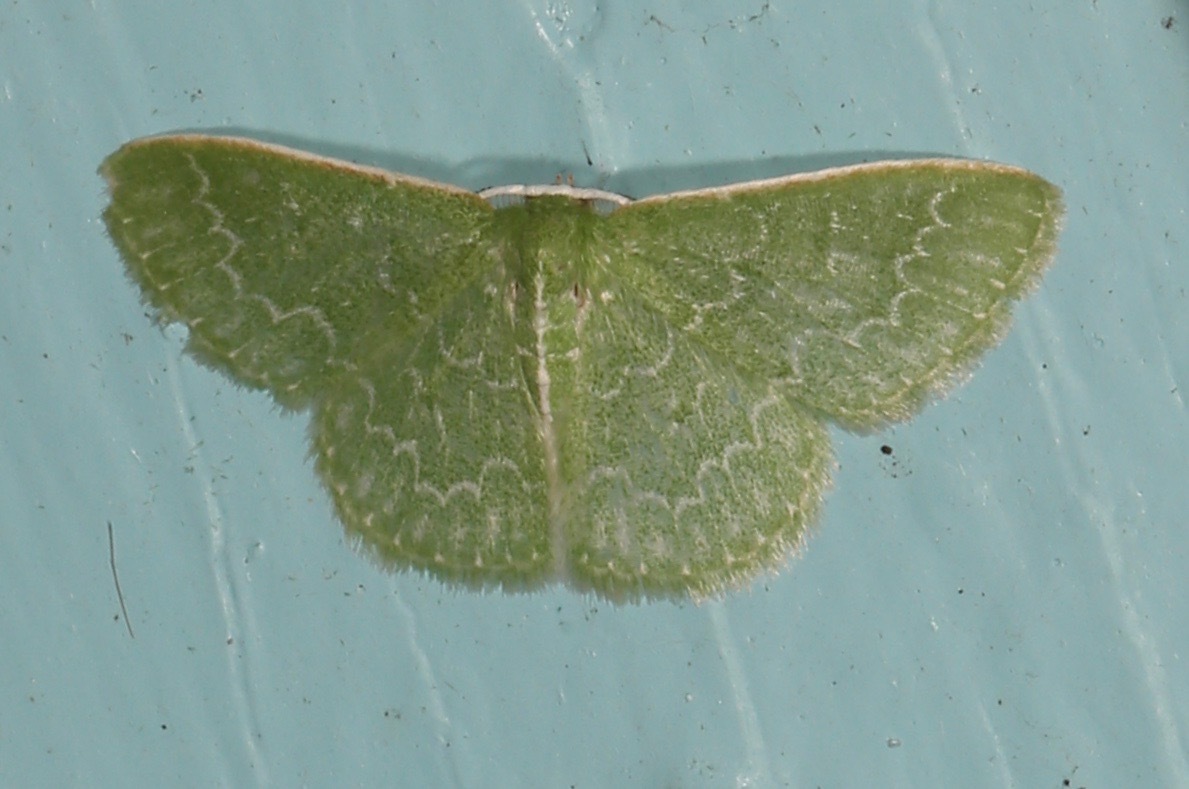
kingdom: Animalia
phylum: Arthropoda
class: Insecta
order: Lepidoptera
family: Geometridae
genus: Synchlora
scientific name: Synchlora frondaria
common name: Southern emerald
